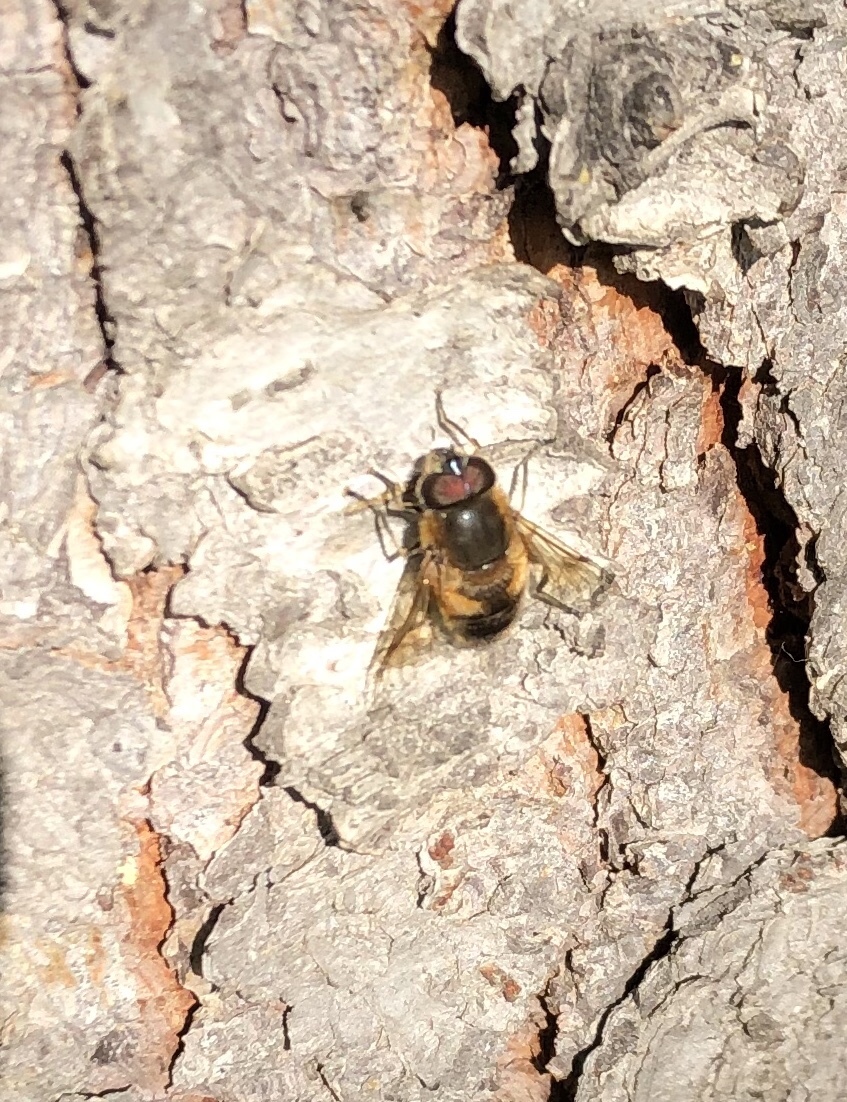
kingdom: Animalia
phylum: Arthropoda
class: Insecta
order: Diptera
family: Syrphidae
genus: Eristalis
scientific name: Eristalis
